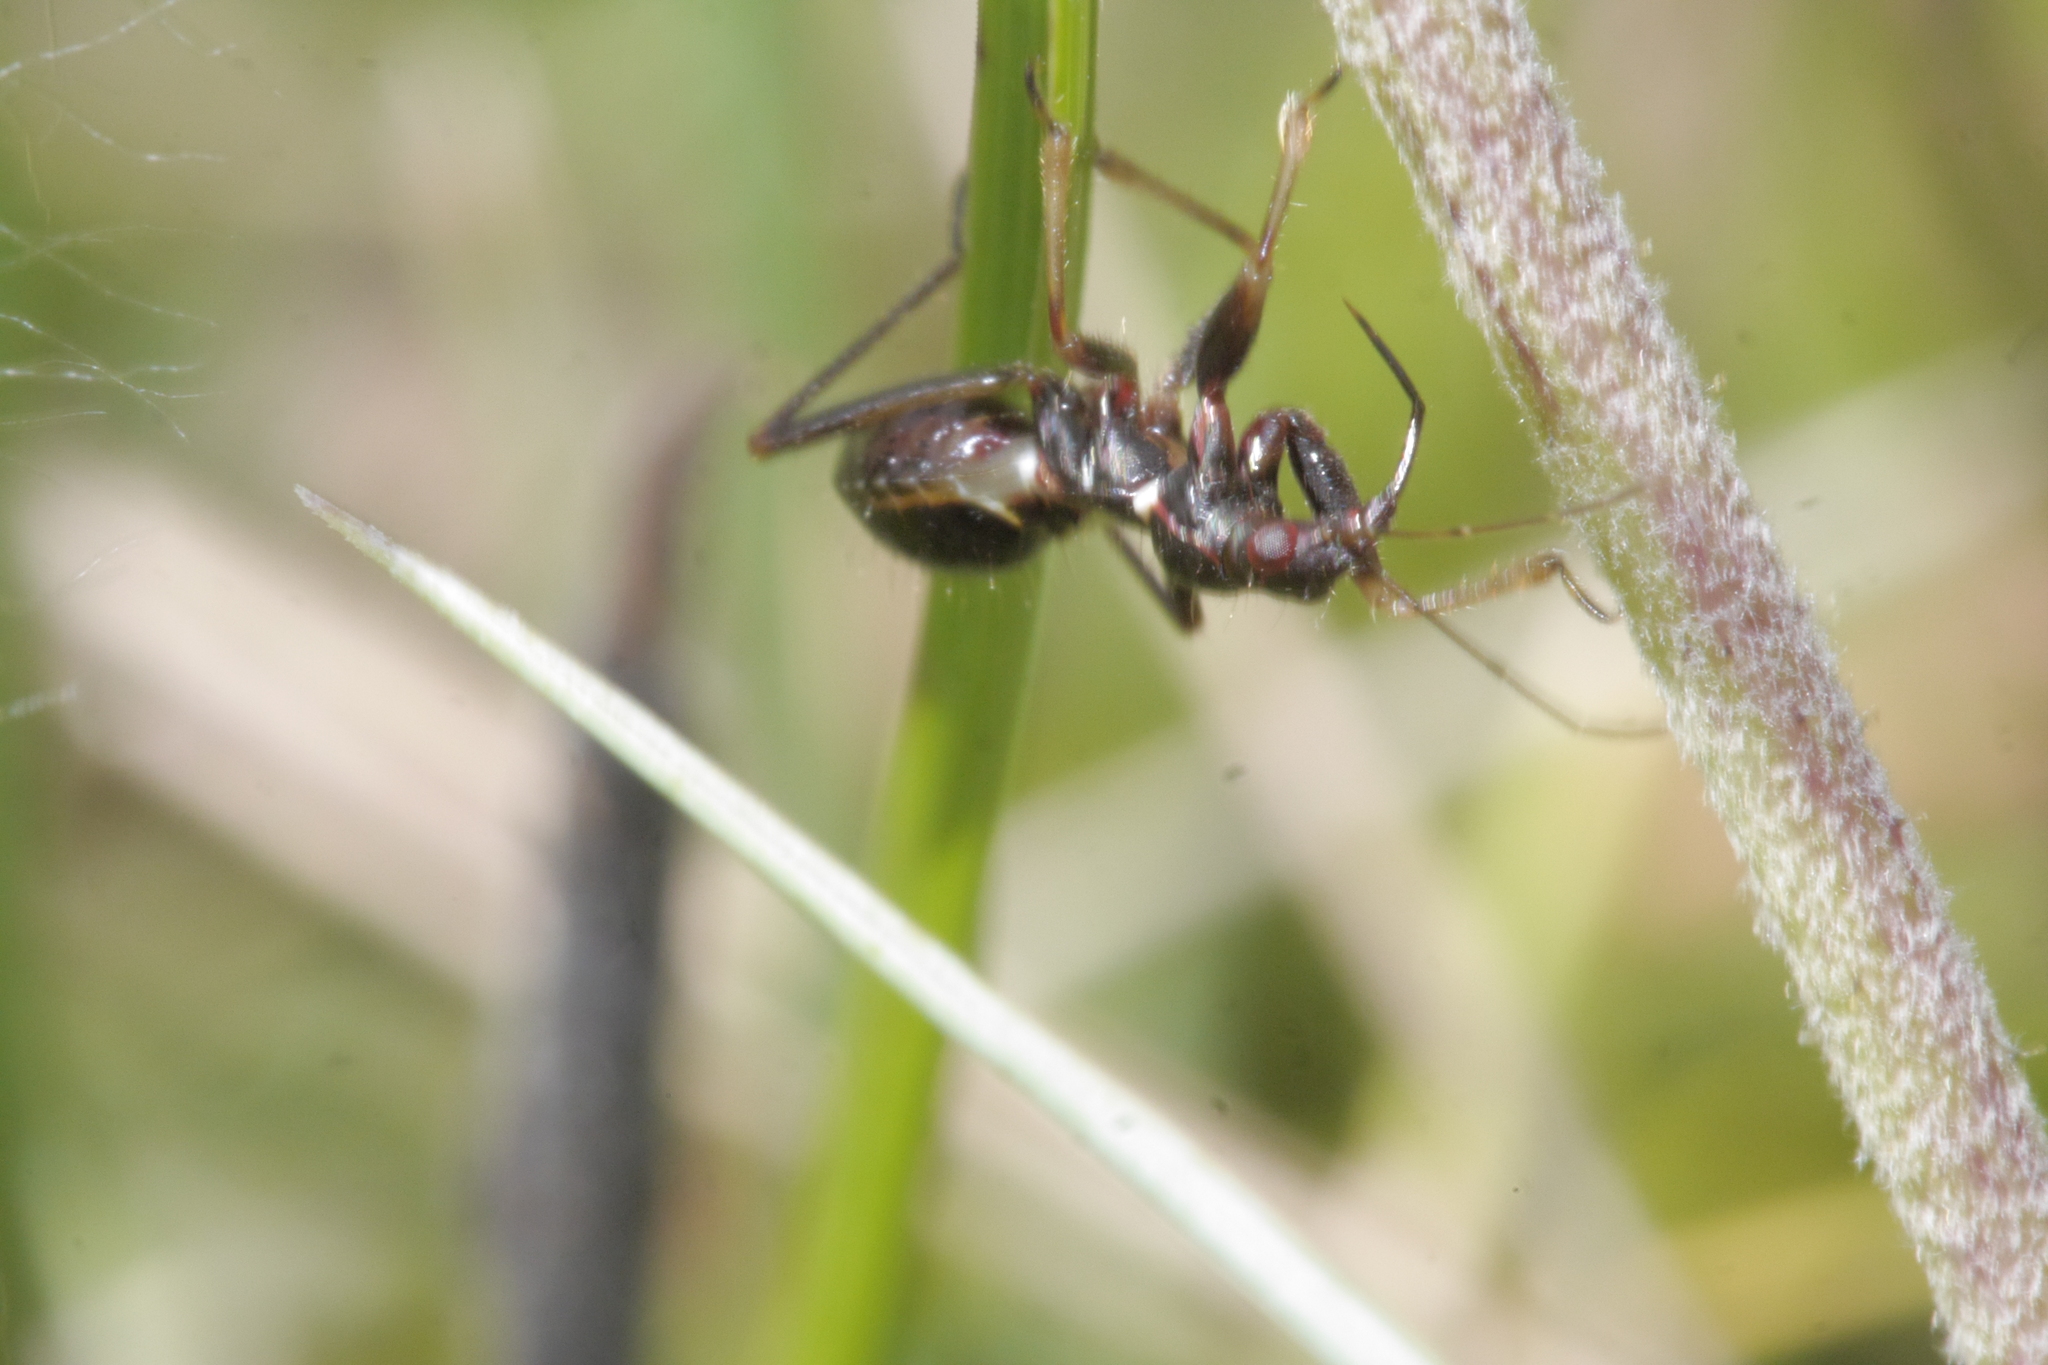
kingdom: Animalia
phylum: Arthropoda
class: Insecta
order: Hemiptera
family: Nabidae
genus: Himacerus
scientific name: Himacerus mirmicoides
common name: Ant damsel bug
